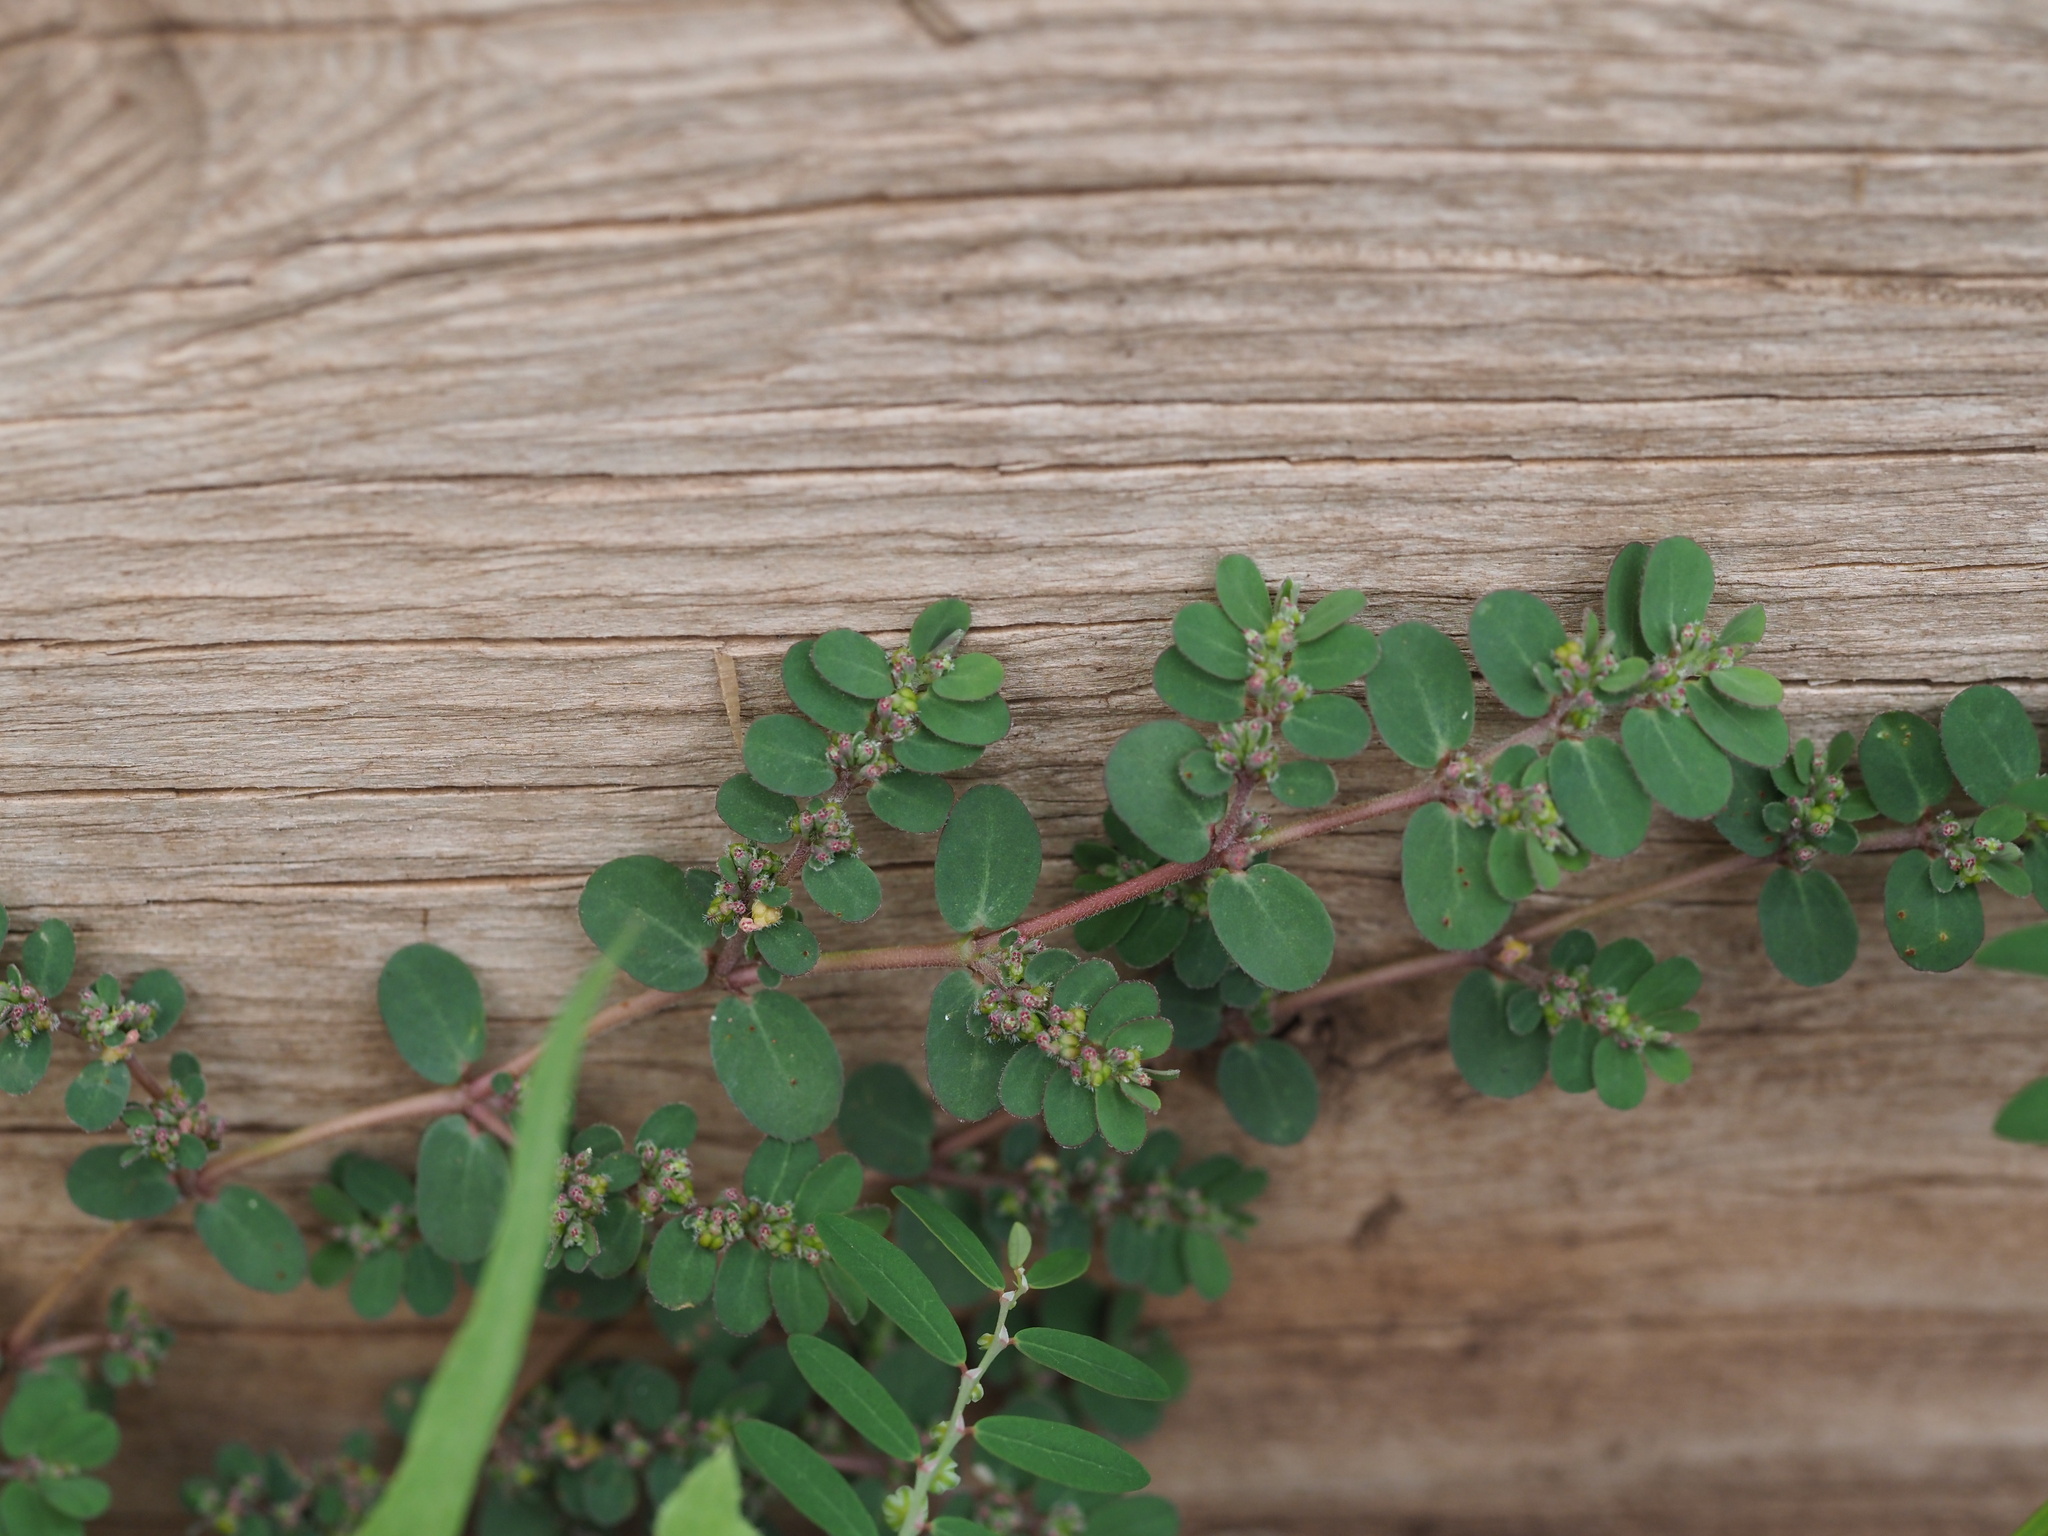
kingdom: Plantae
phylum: Tracheophyta
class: Magnoliopsida
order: Malpighiales
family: Euphorbiaceae
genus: Euphorbia
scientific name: Euphorbia prostrata
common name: Prostrate sandmat
